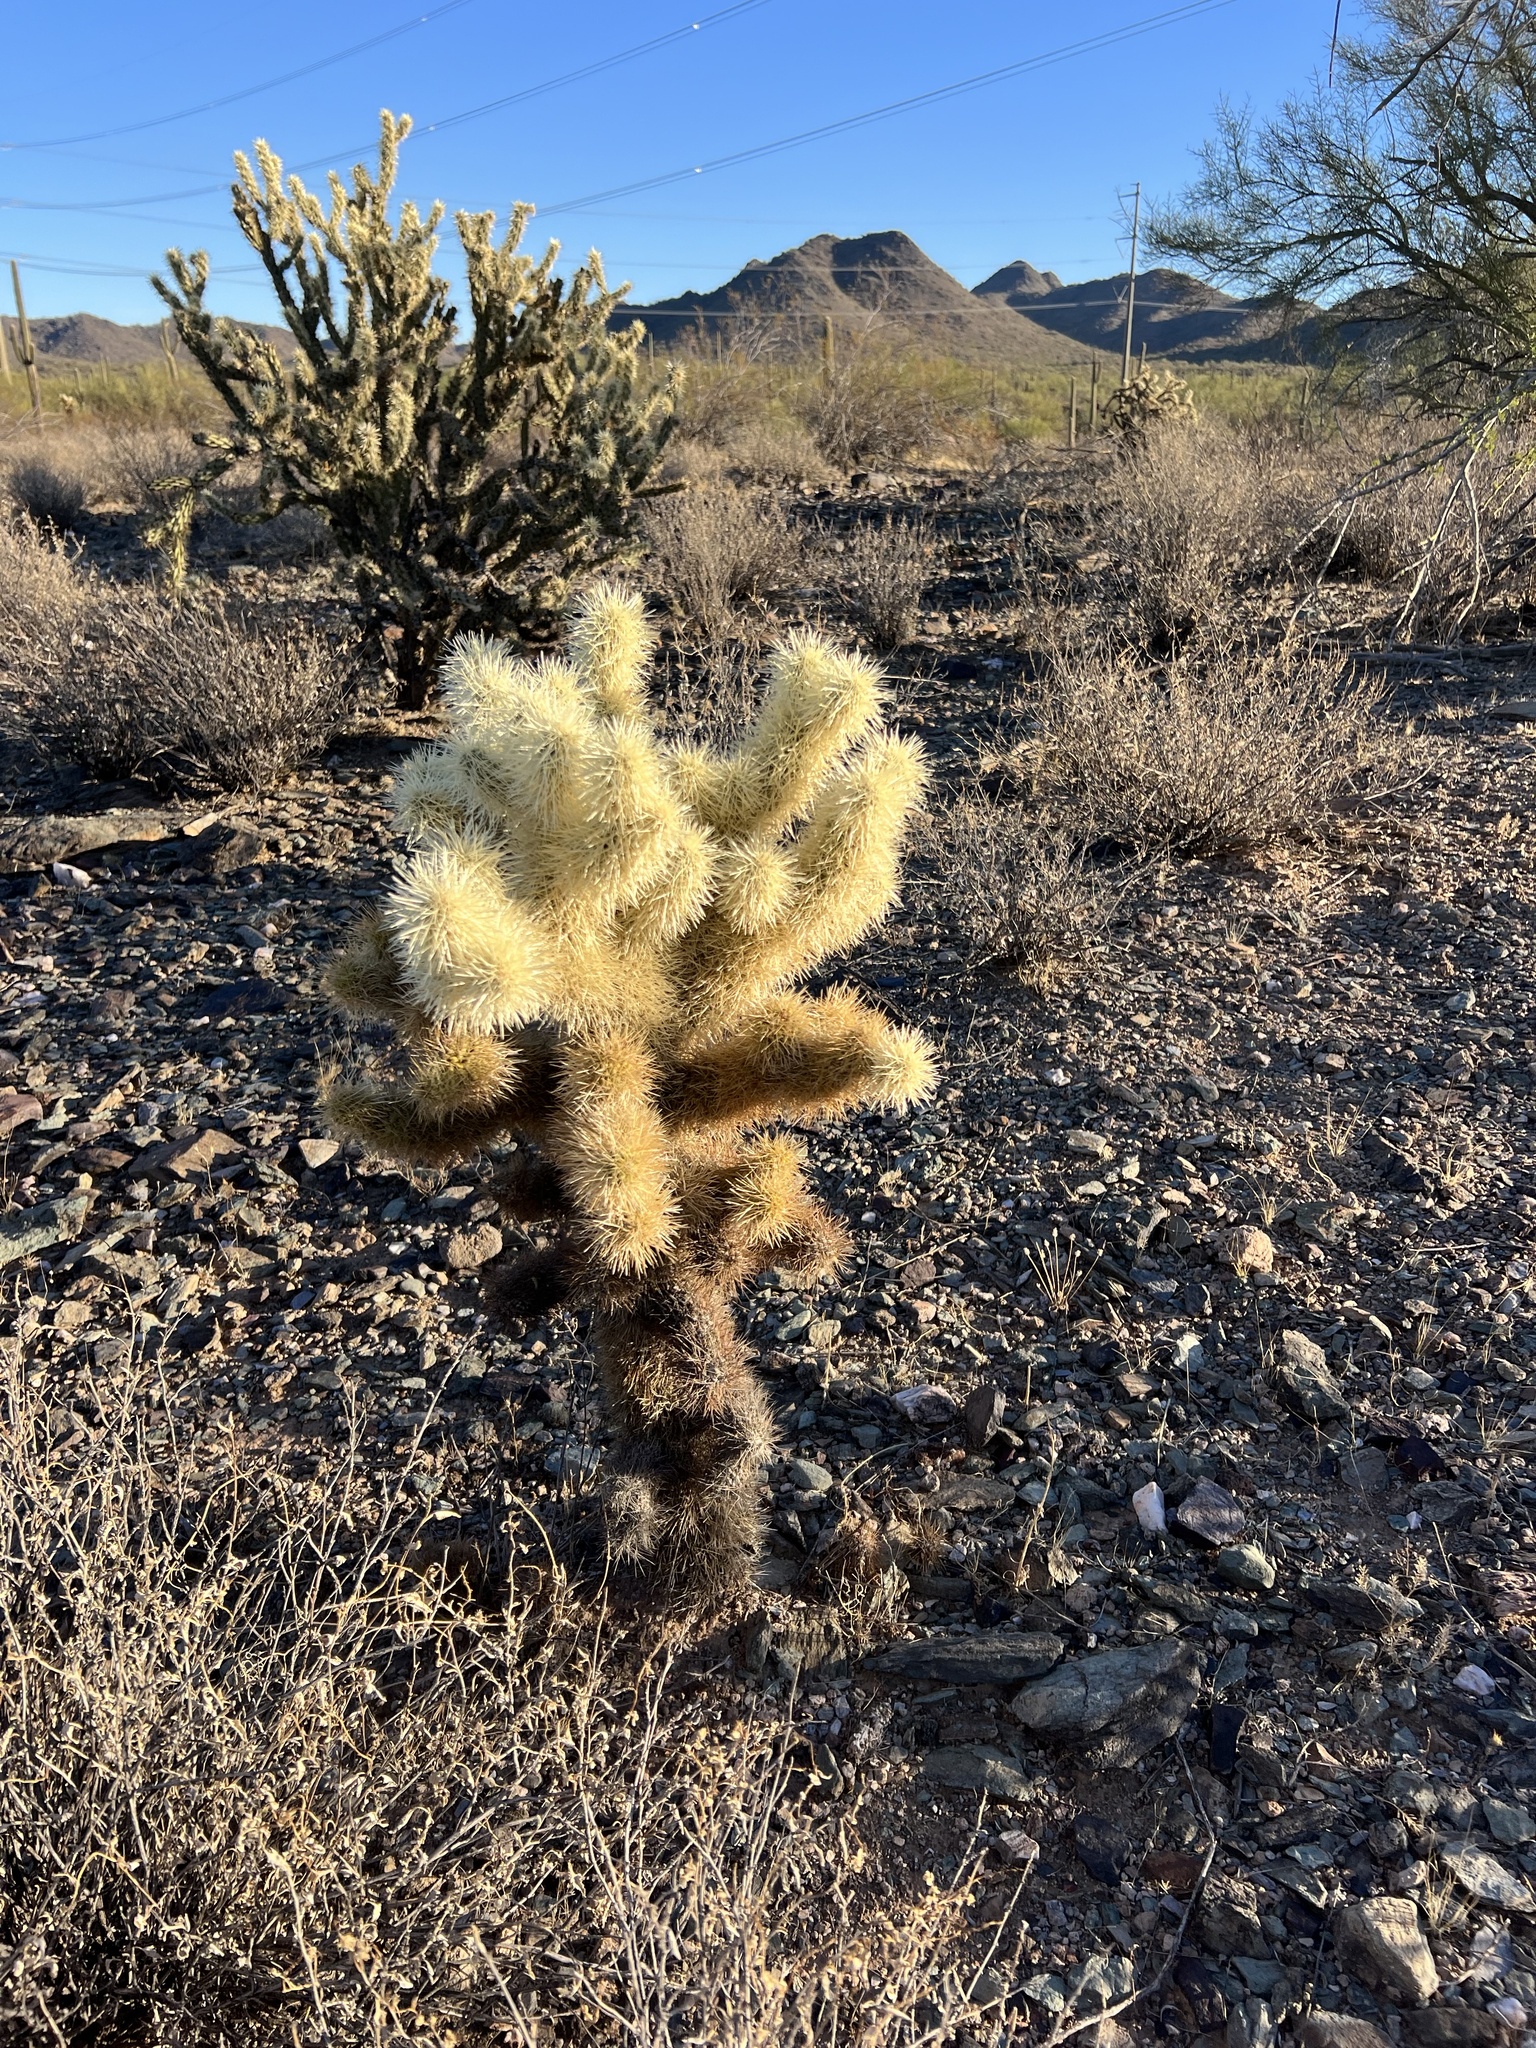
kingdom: Plantae
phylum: Tracheophyta
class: Magnoliopsida
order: Caryophyllales
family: Cactaceae
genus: Cylindropuntia
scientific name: Cylindropuntia fosbergii
